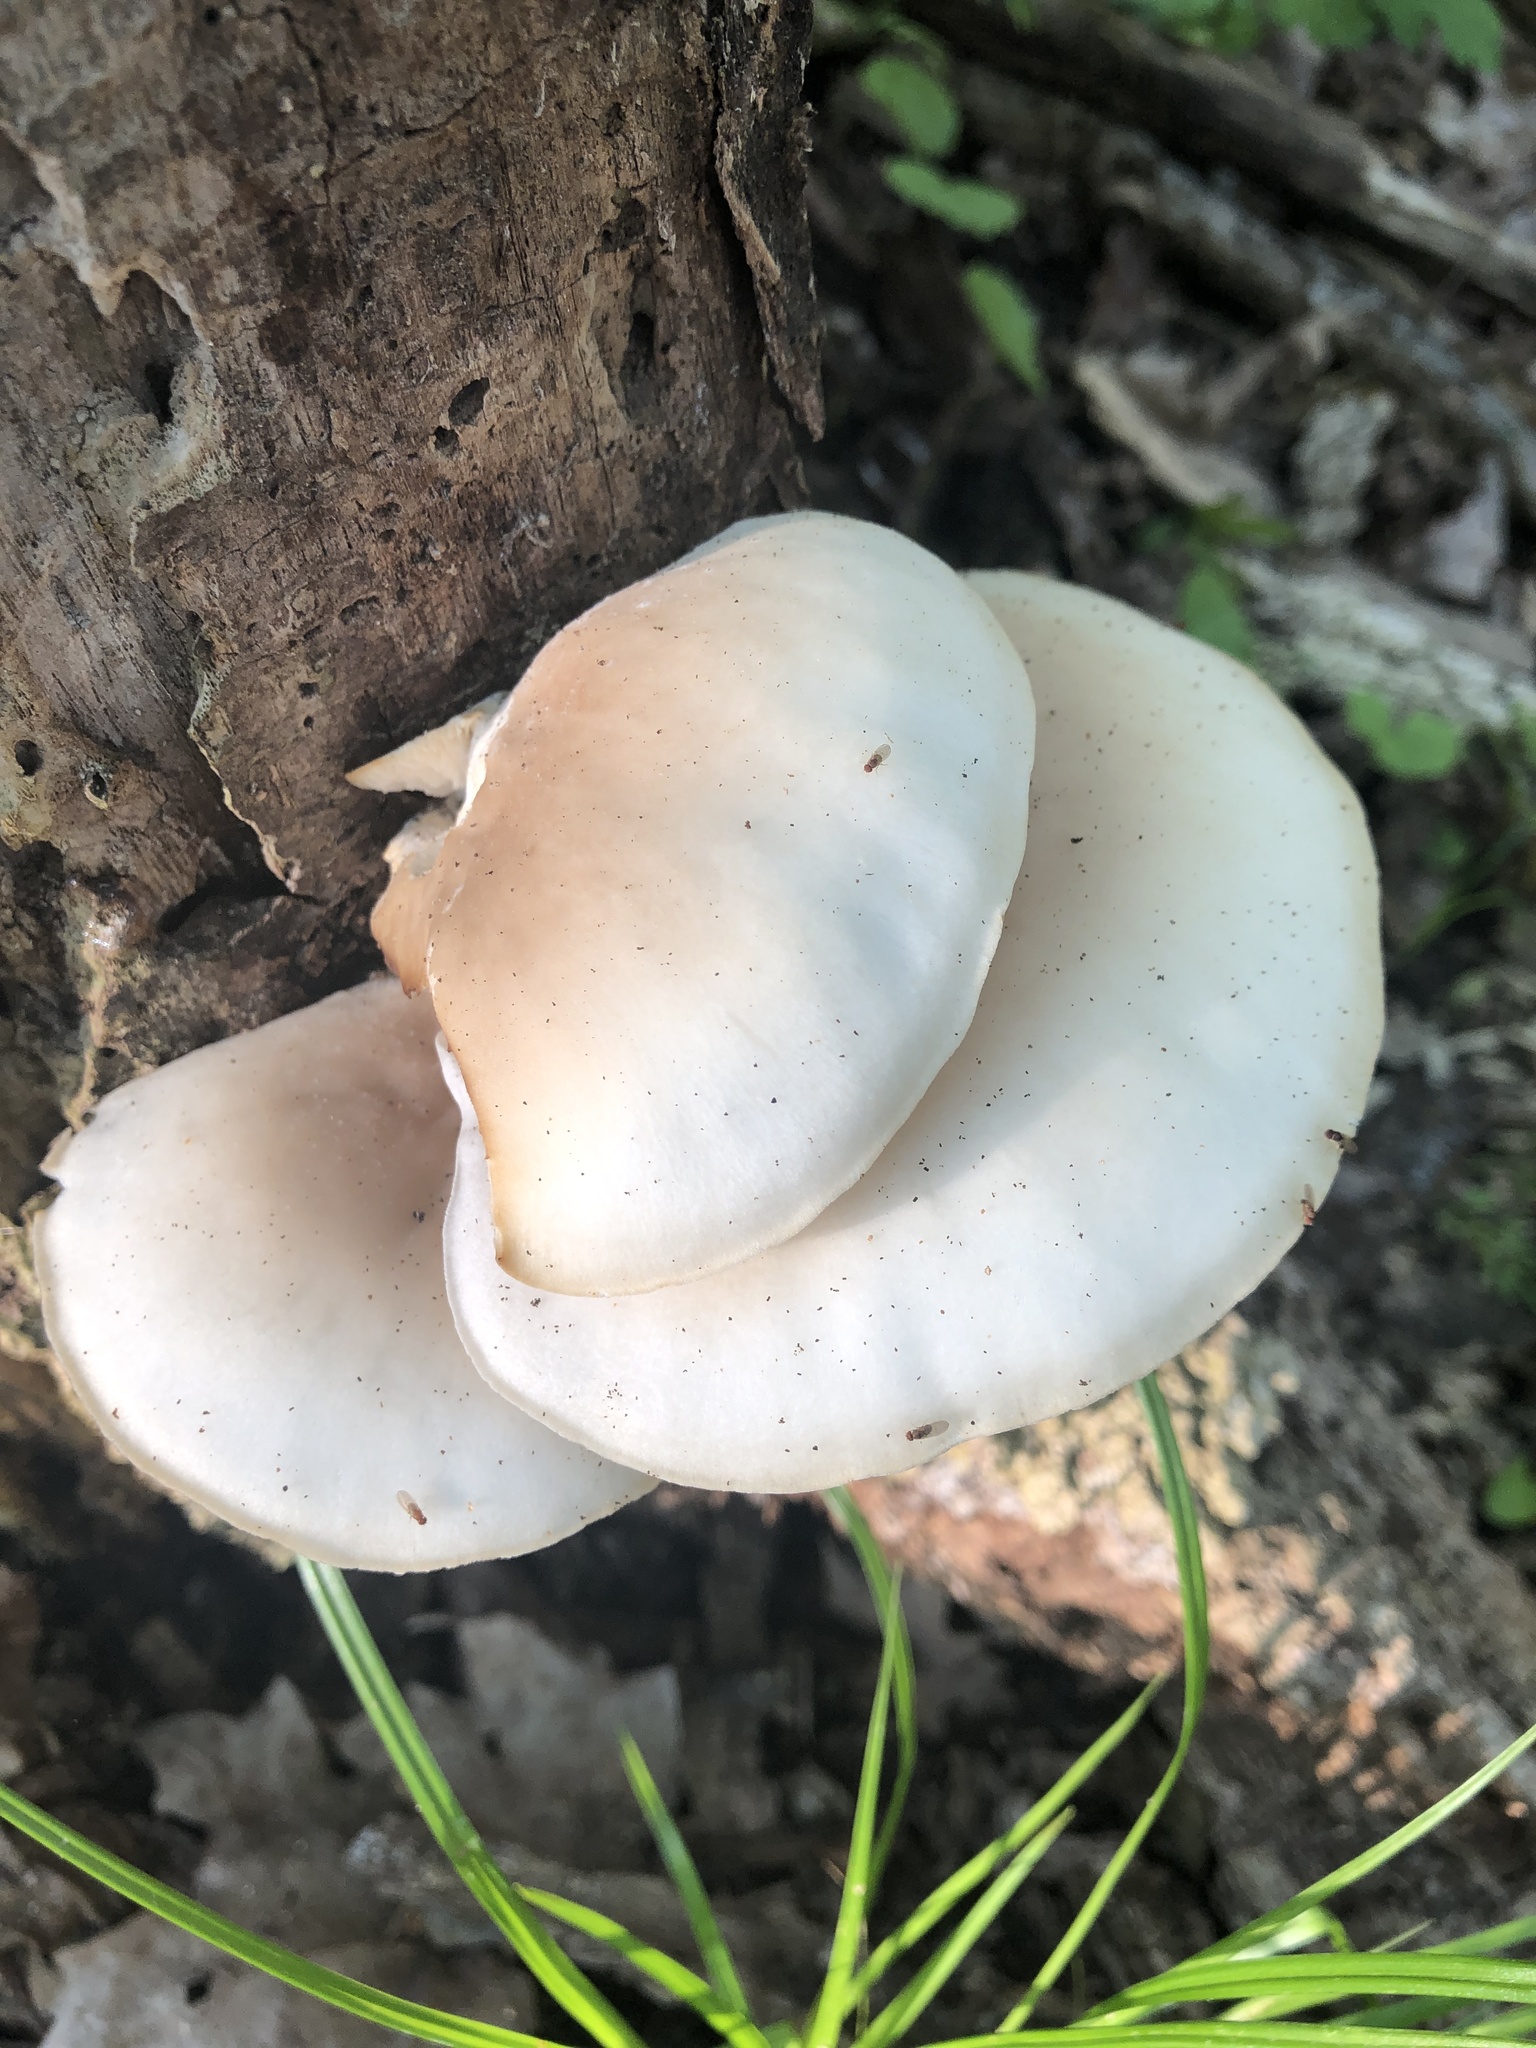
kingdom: Fungi
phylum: Basidiomycota
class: Agaricomycetes
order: Agaricales
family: Pleurotaceae
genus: Pleurotus
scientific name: Pleurotus pulmonarius
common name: Pale oyster
